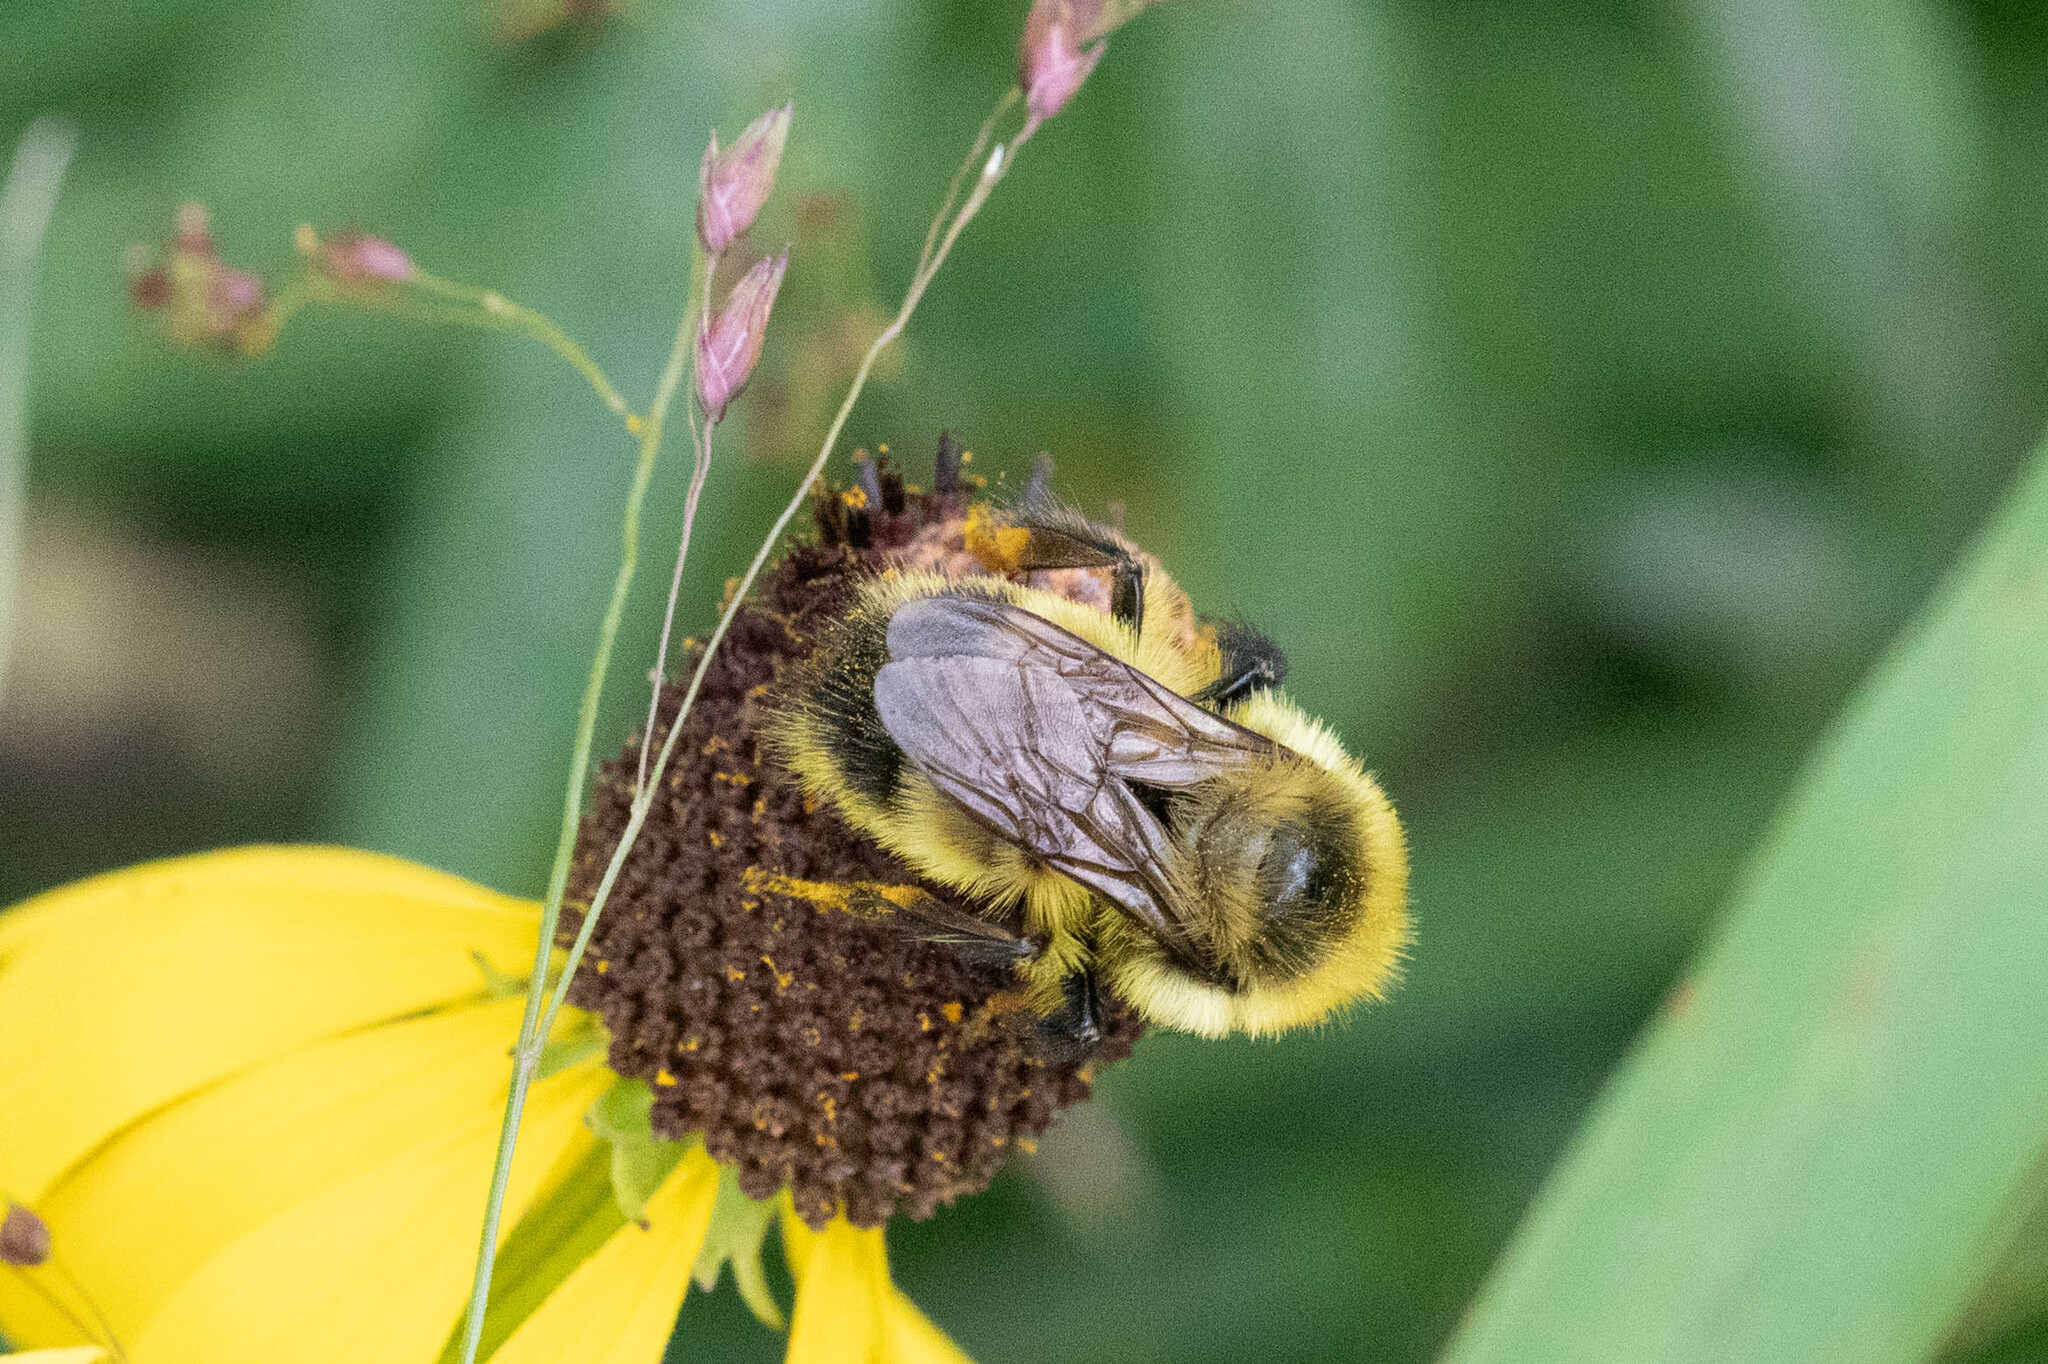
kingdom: Animalia
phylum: Arthropoda
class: Insecta
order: Hymenoptera
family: Apidae
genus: Bombus
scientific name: Bombus rufocinctus
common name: Red-belted bumble bee
